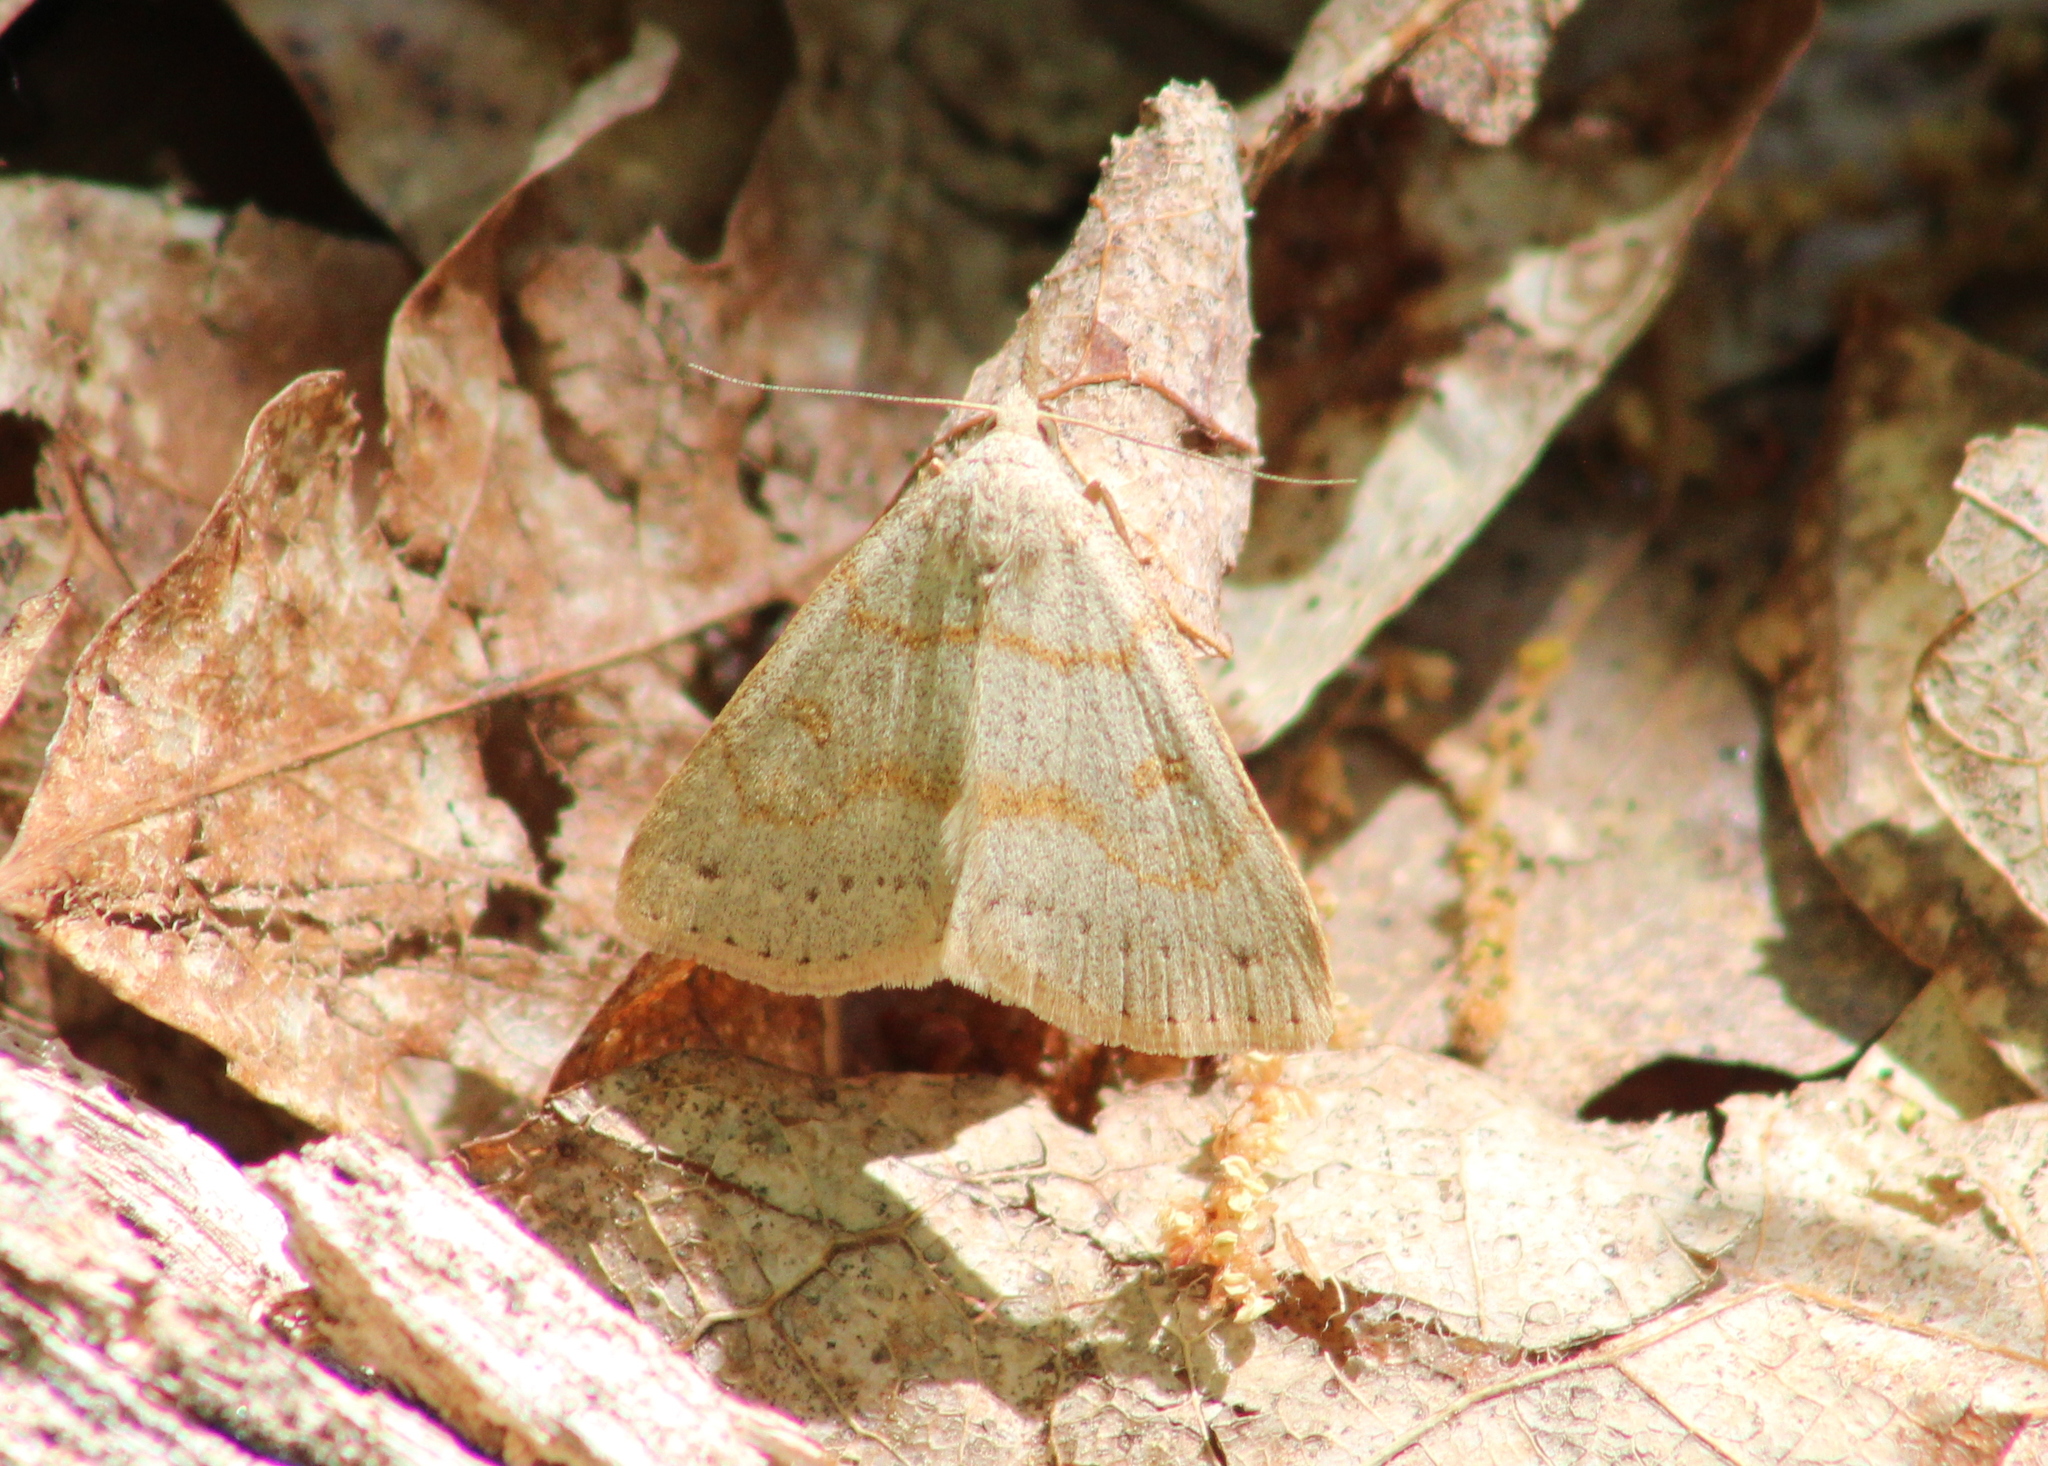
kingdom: Animalia
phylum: Arthropoda
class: Insecta
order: Lepidoptera
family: Erebidae
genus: Macrochilo
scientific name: Macrochilo morbidalis
